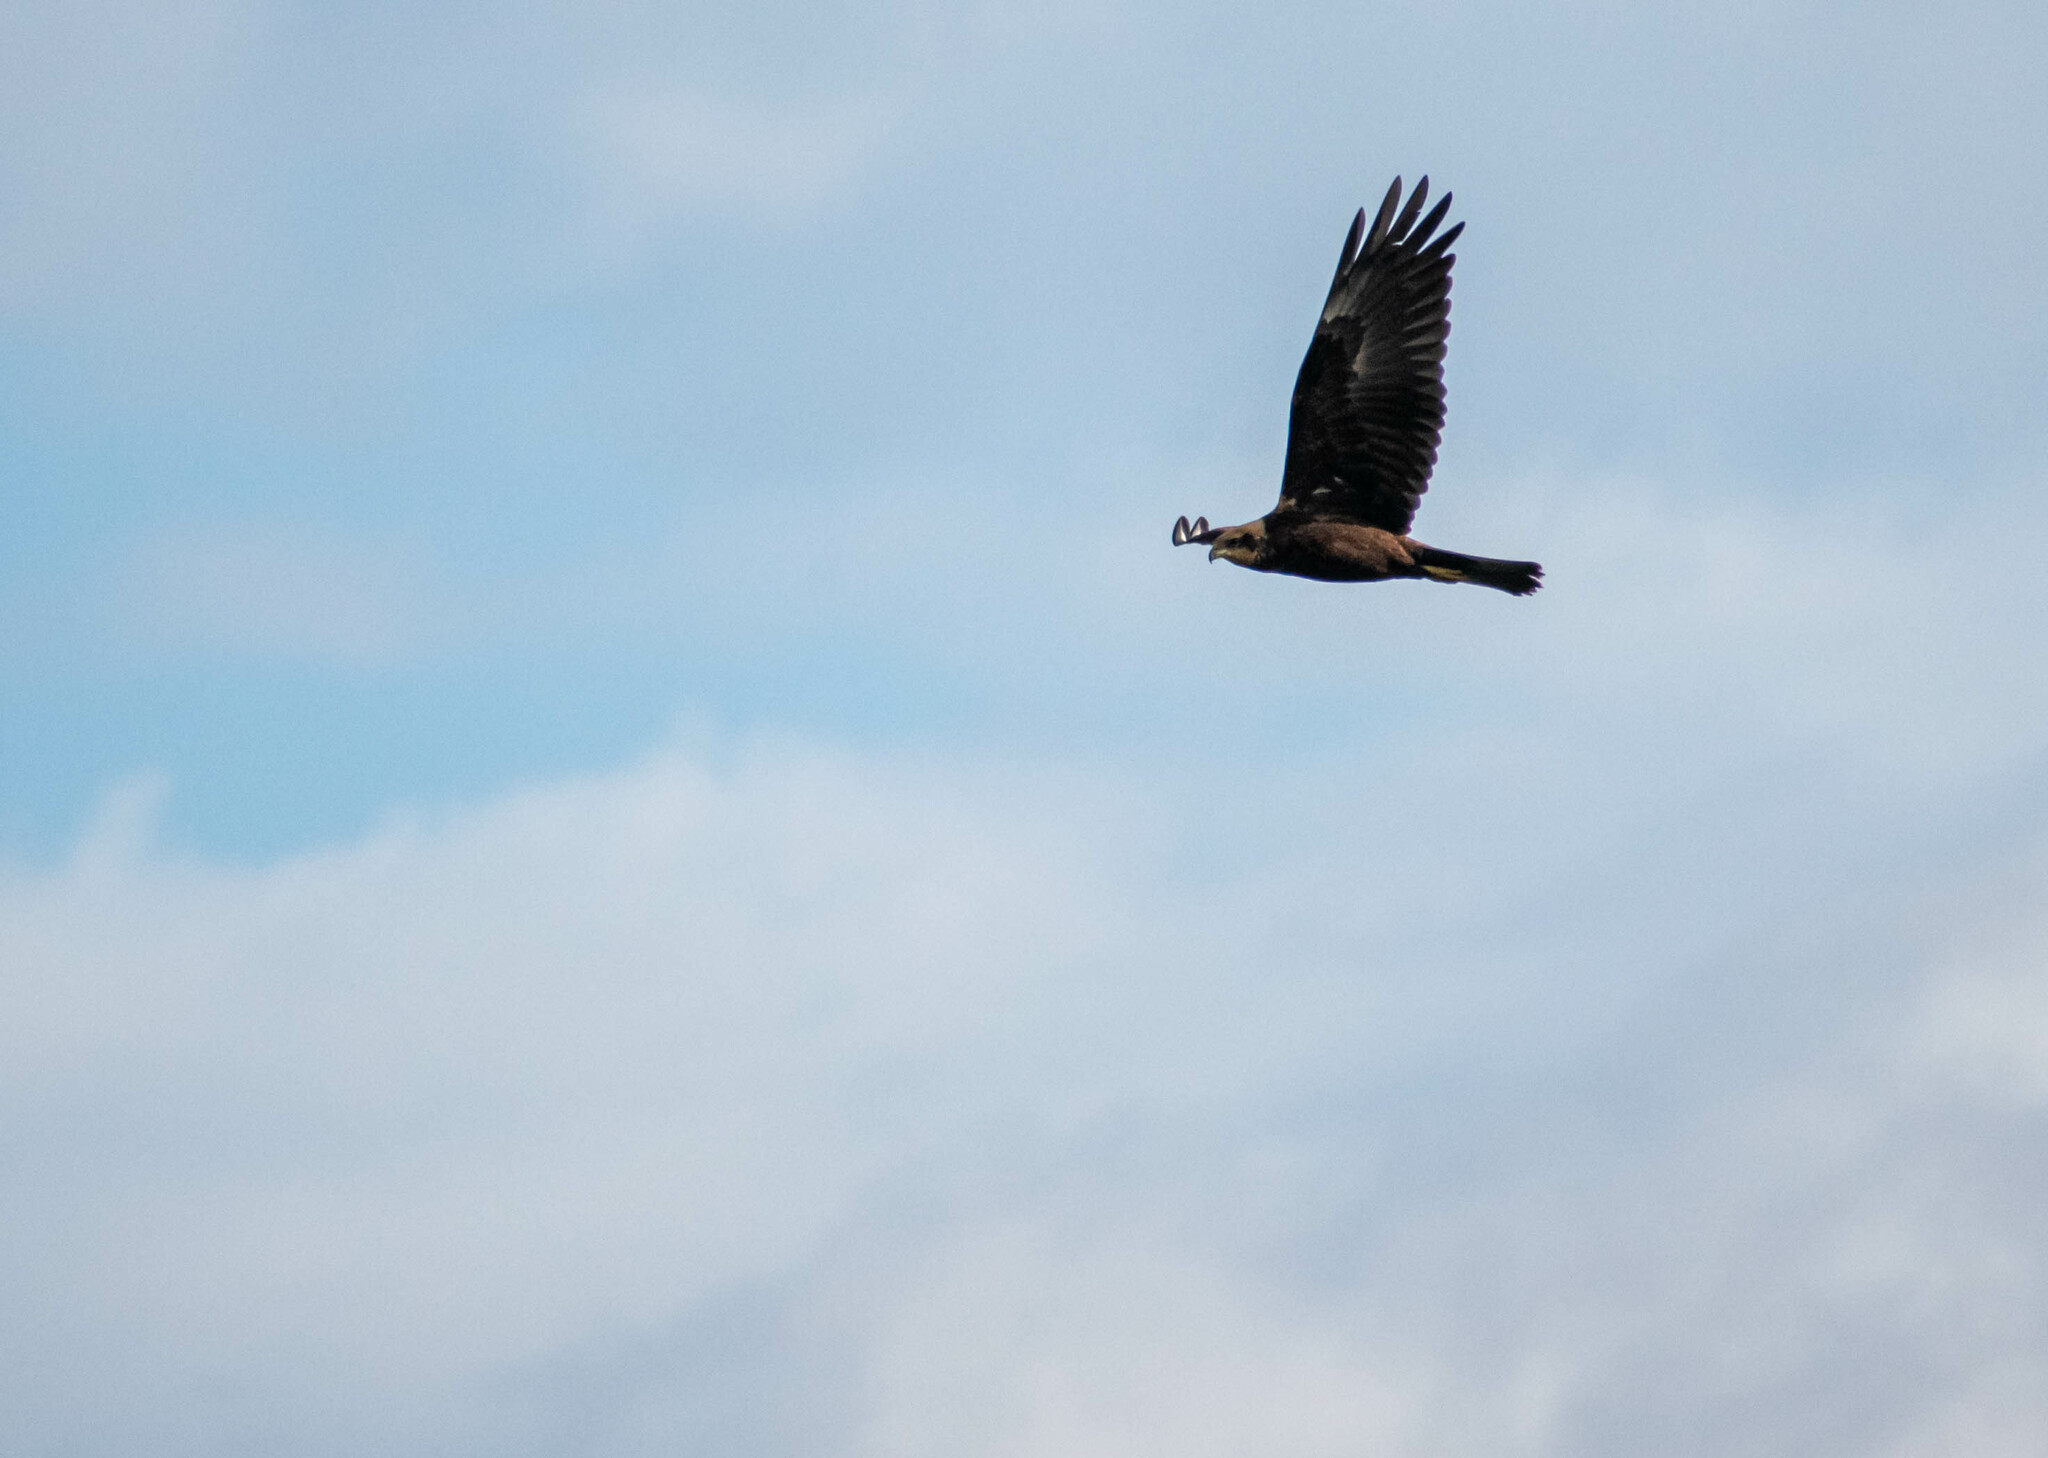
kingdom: Animalia
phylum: Chordata
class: Aves
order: Accipitriformes
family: Accipitridae
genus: Circus
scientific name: Circus aeruginosus
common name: Western marsh harrier
